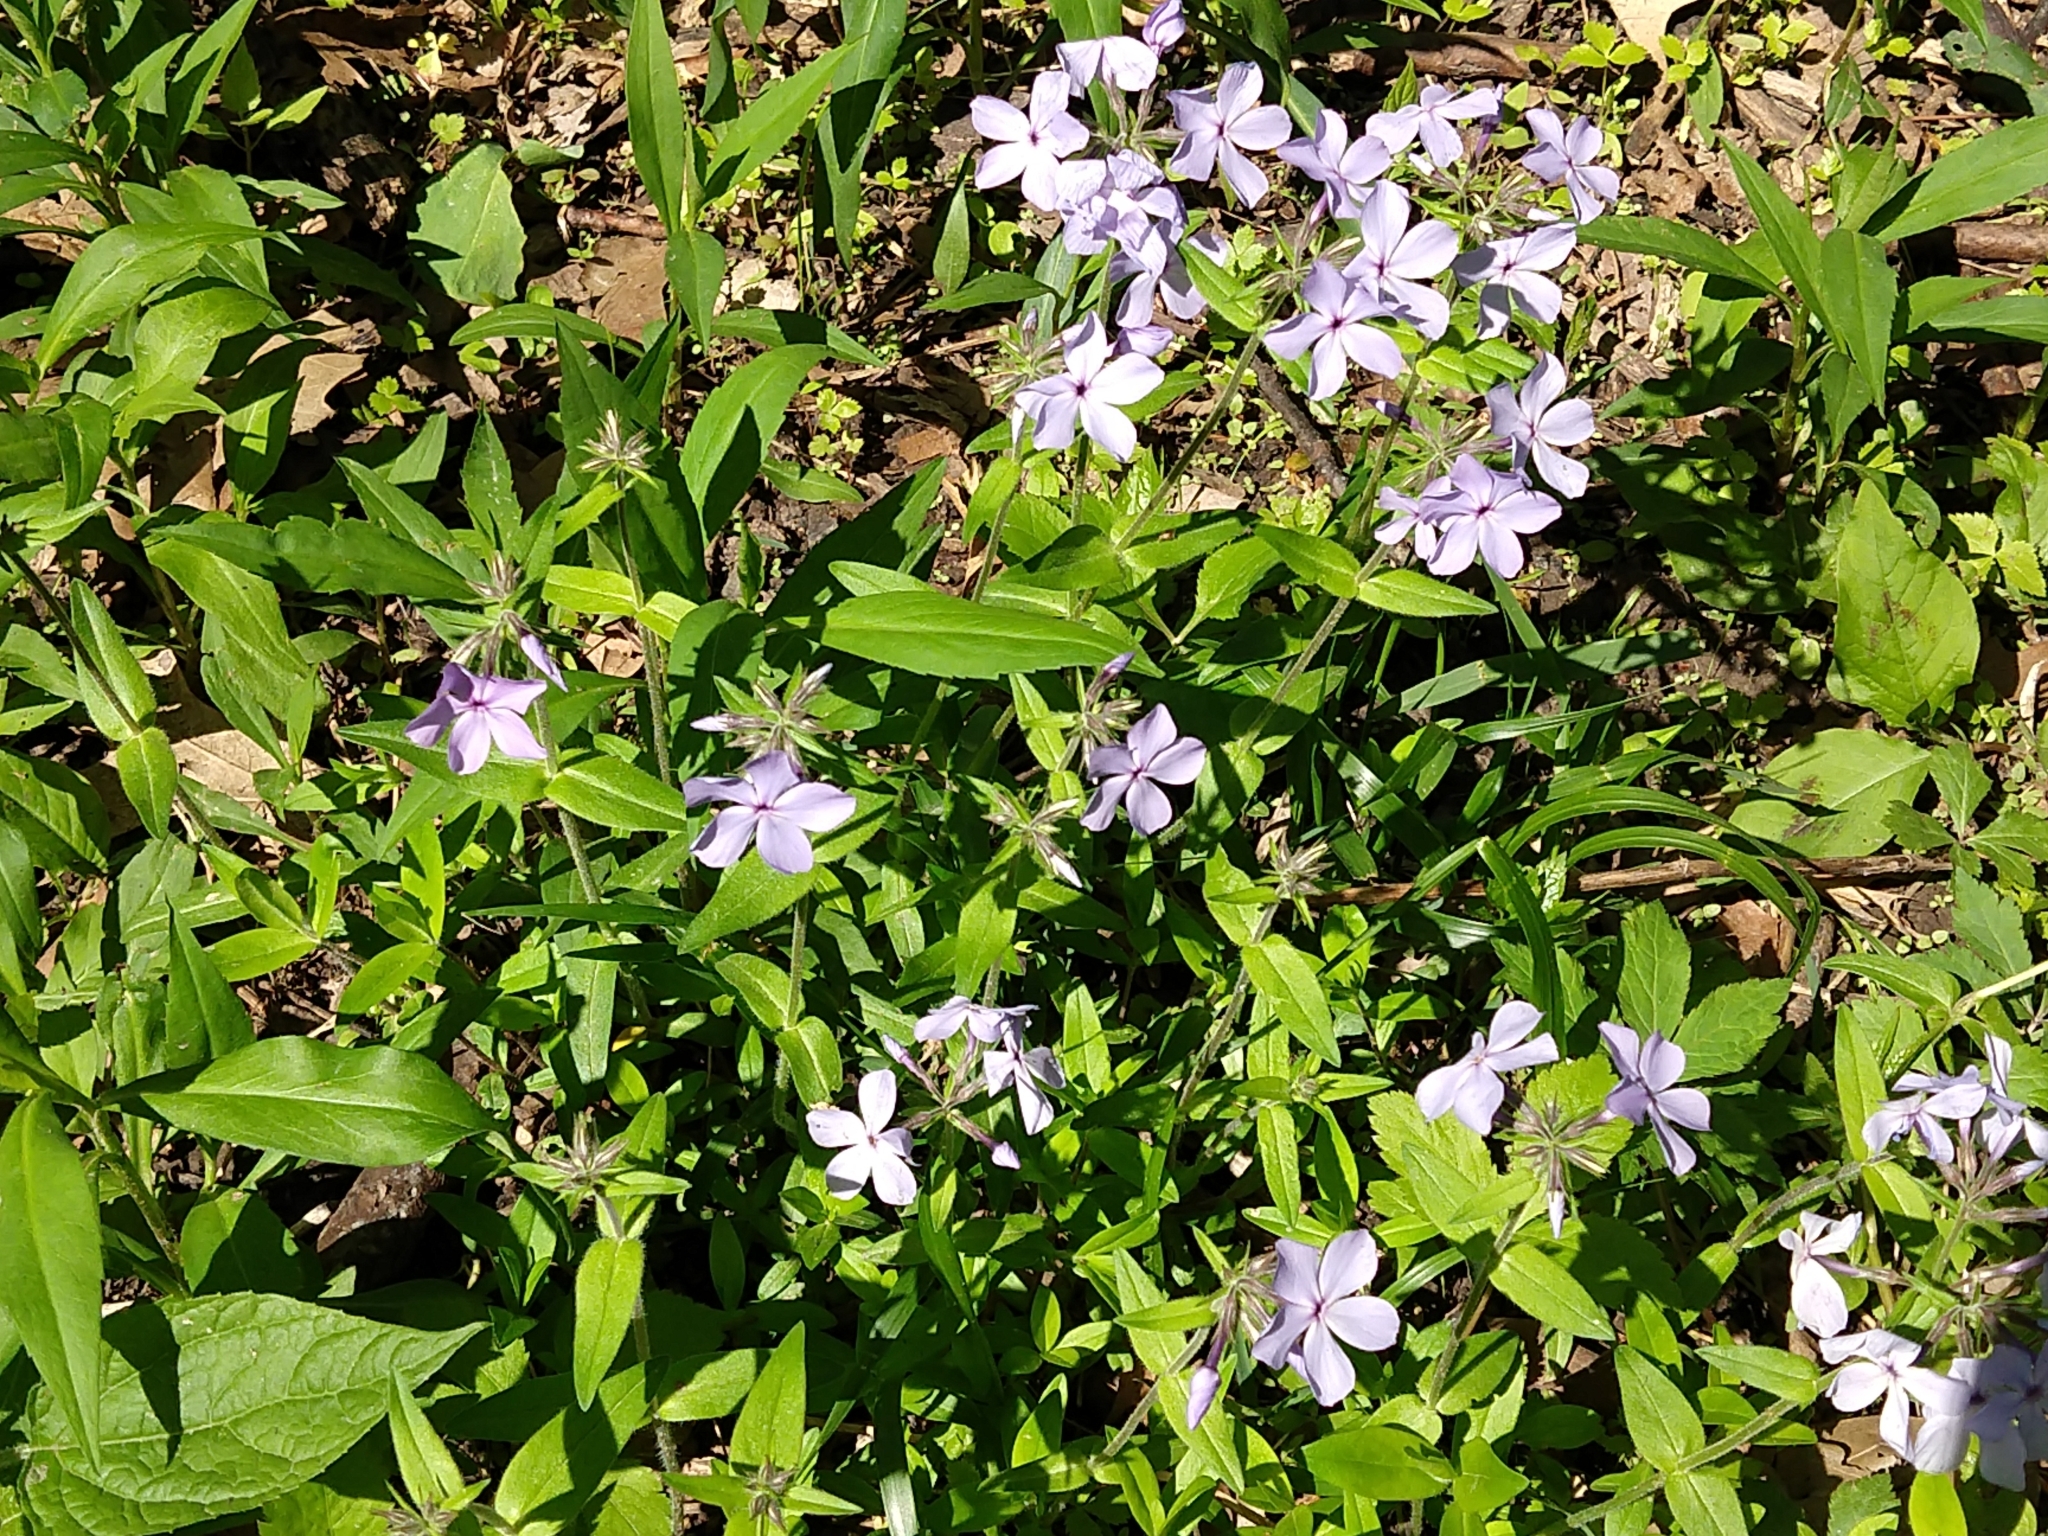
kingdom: Plantae
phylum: Tracheophyta
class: Magnoliopsida
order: Ericales
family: Polemoniaceae
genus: Phlox
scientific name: Phlox divaricata
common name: Blue phlox
